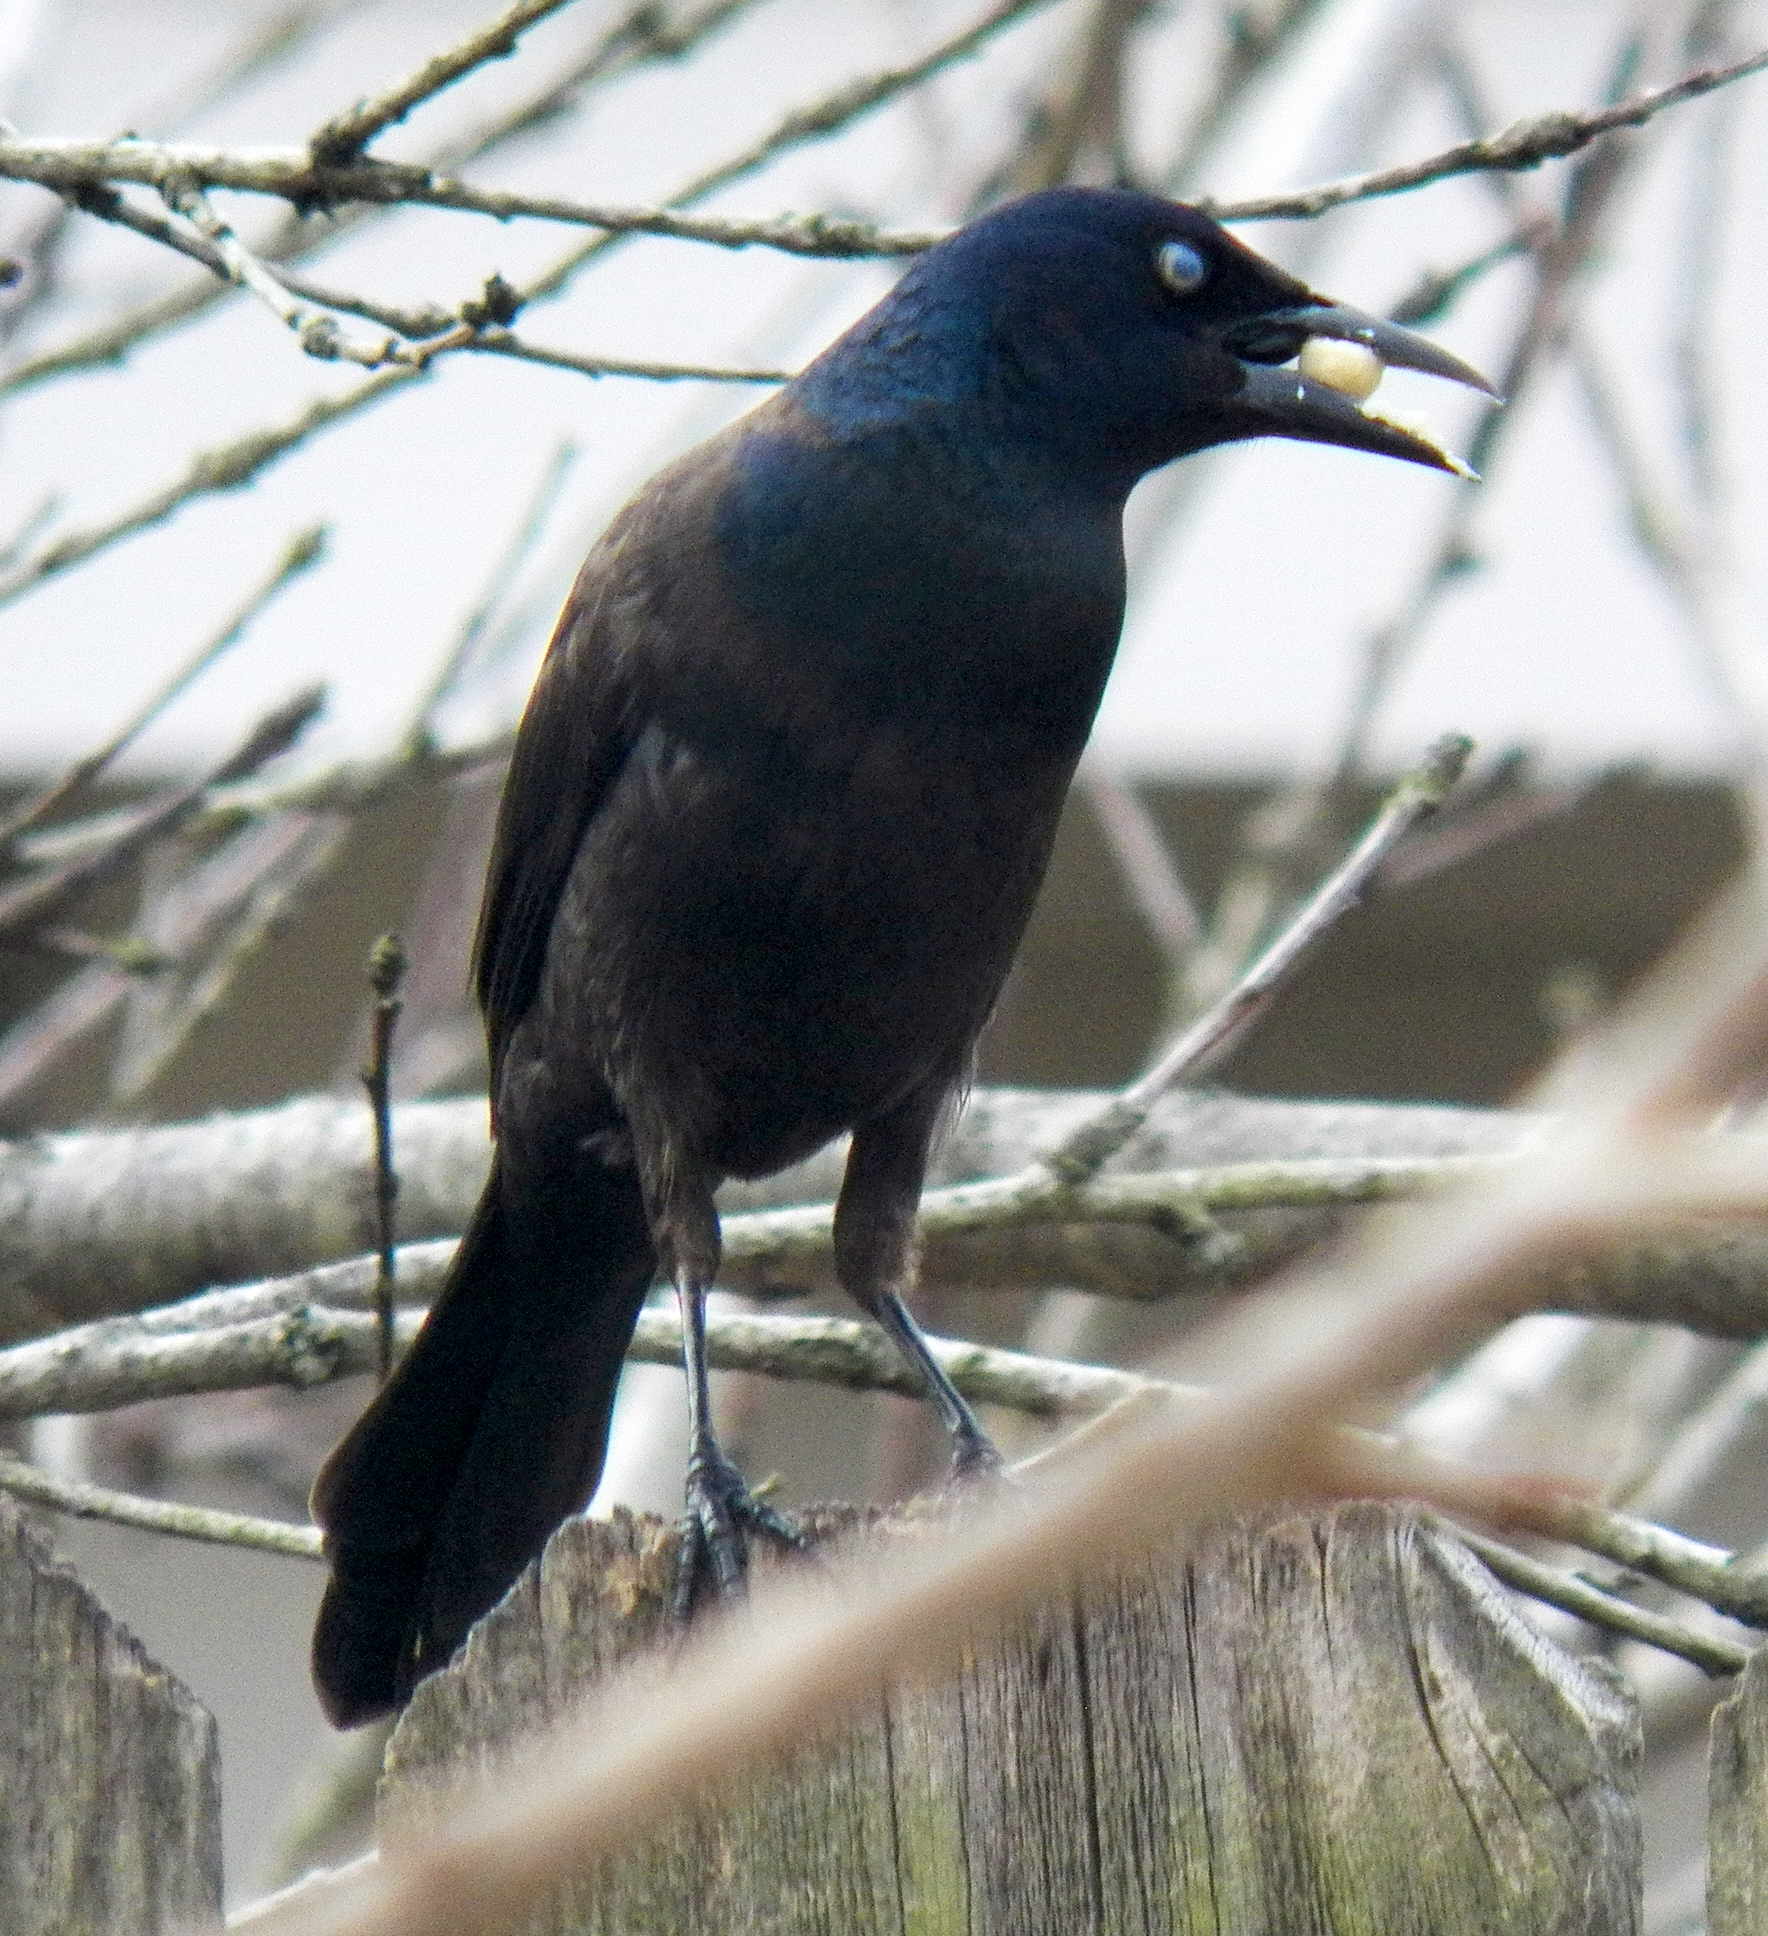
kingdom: Animalia
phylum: Chordata
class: Aves
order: Passeriformes
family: Icteridae
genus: Quiscalus
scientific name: Quiscalus quiscula
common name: Common grackle
